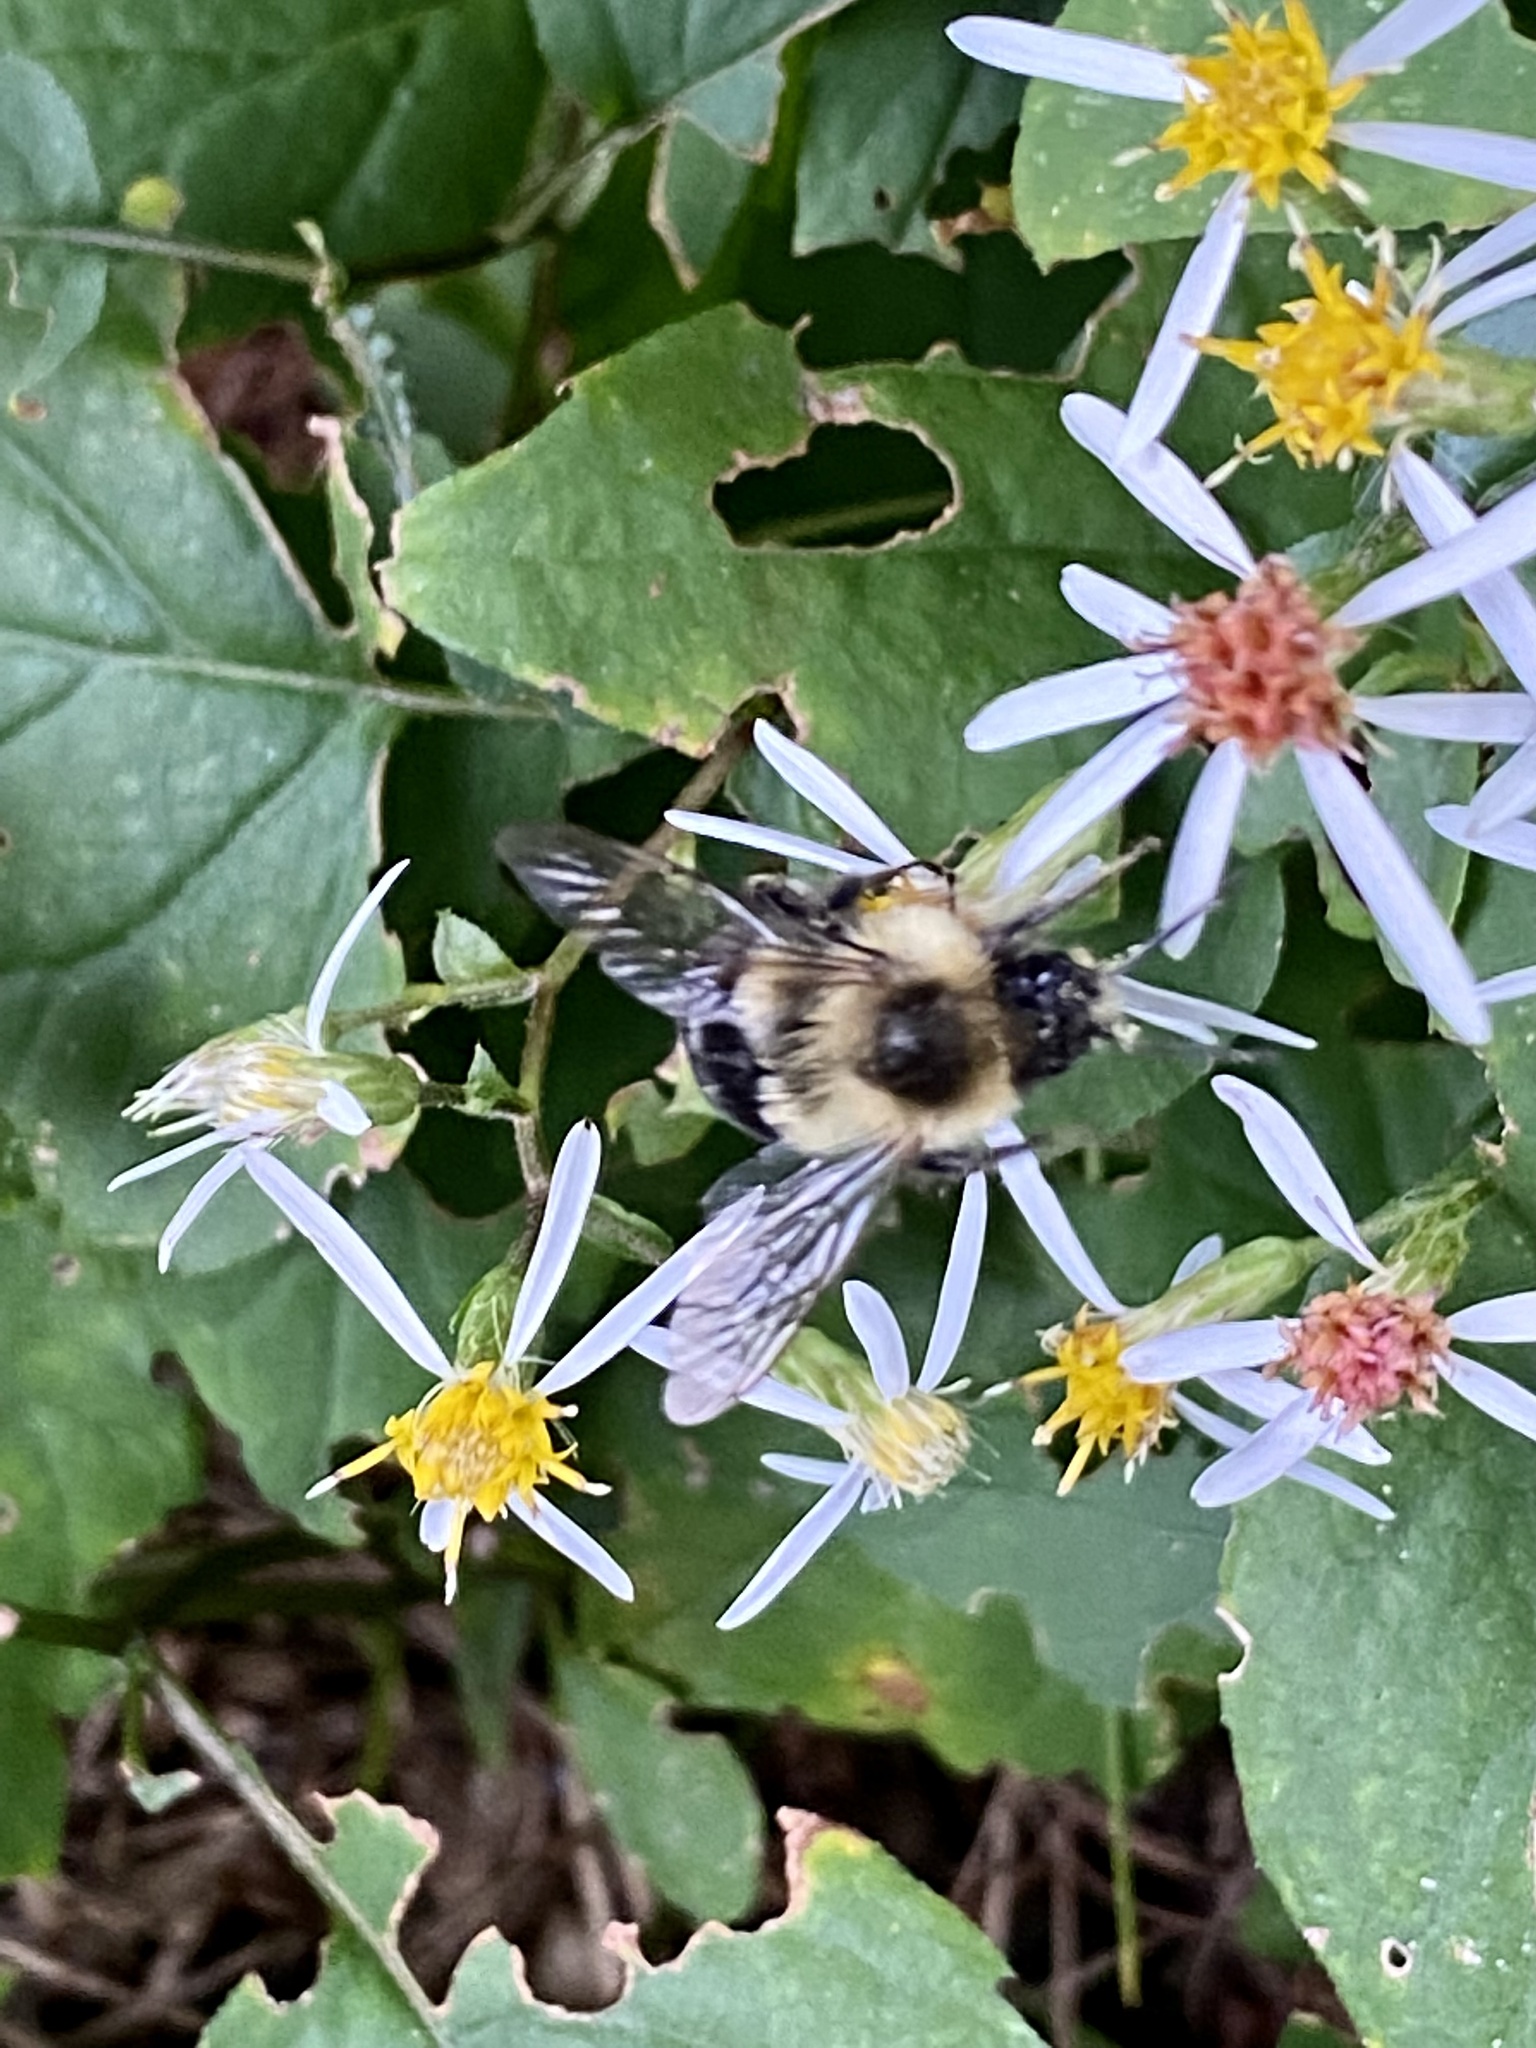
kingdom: Animalia
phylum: Arthropoda
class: Insecta
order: Hymenoptera
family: Apidae
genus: Bombus
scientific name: Bombus impatiens
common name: Common eastern bumble bee
